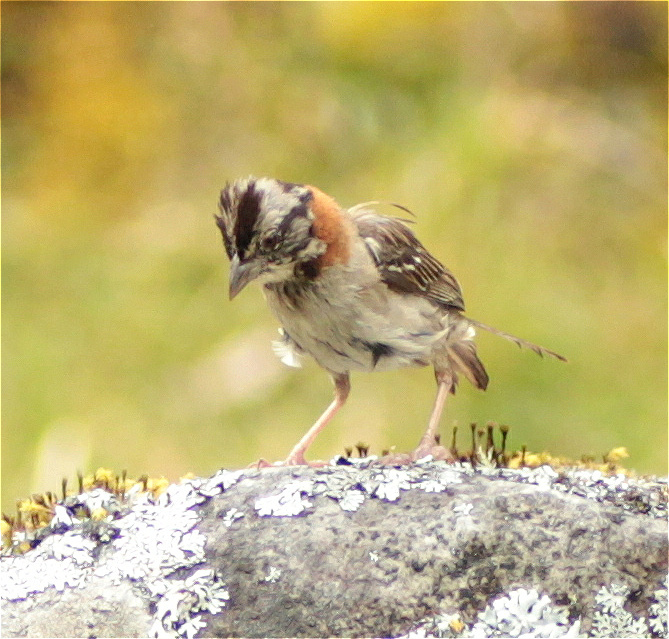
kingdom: Animalia
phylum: Chordata
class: Aves
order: Passeriformes
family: Passerellidae
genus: Zonotrichia
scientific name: Zonotrichia capensis
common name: Rufous-collared sparrow
